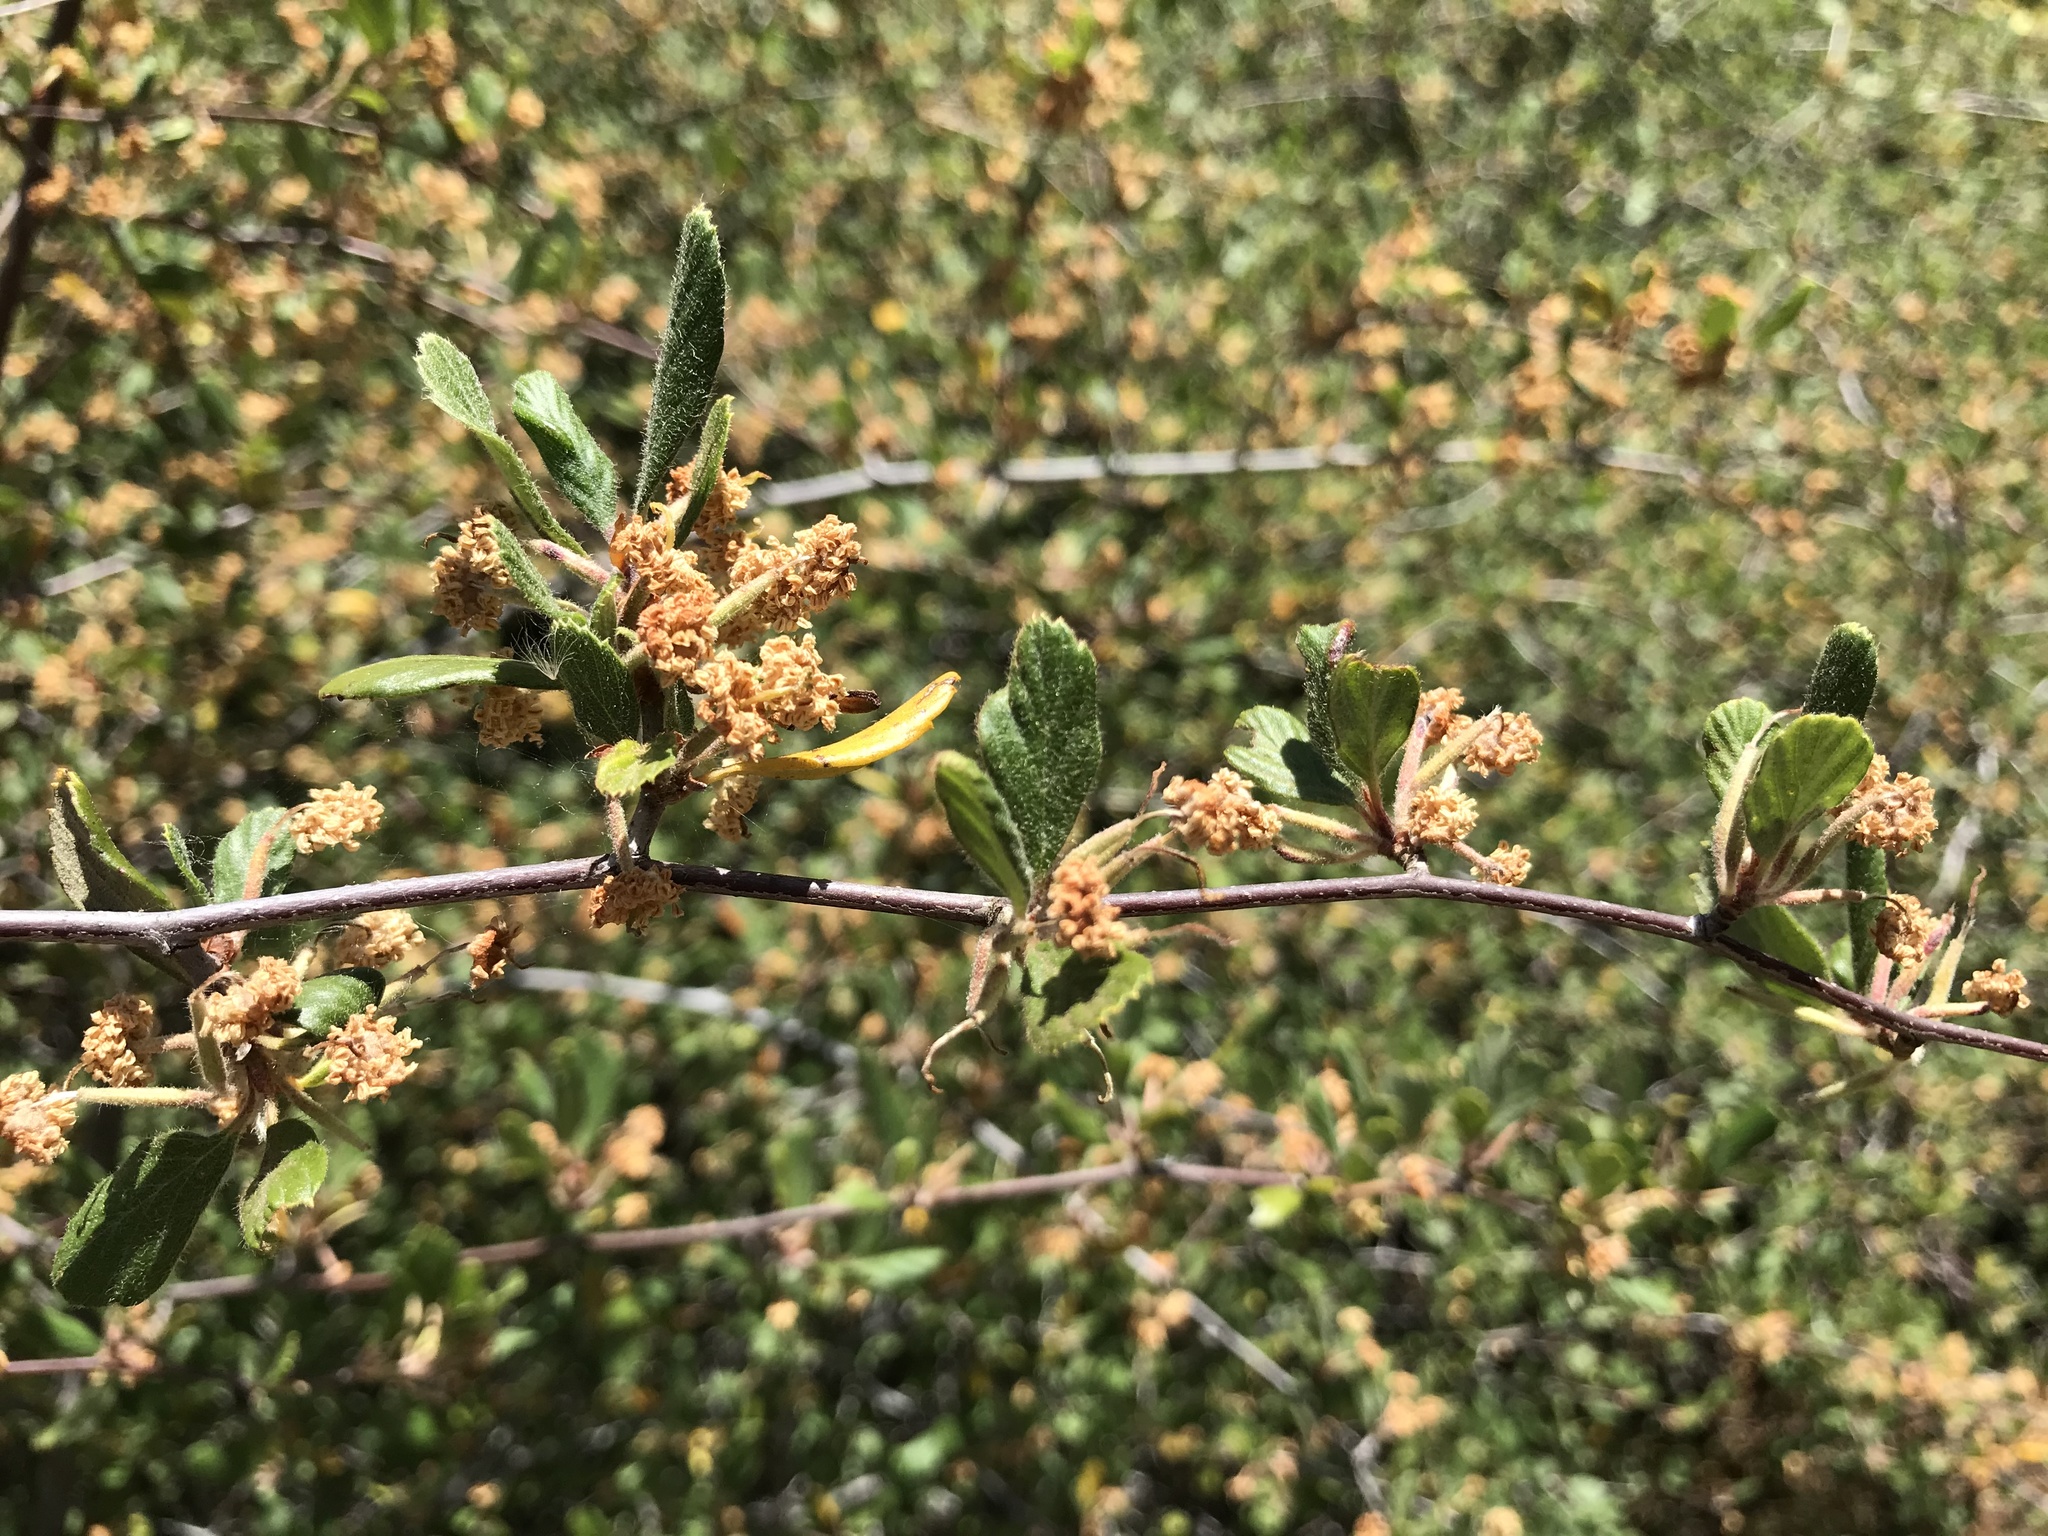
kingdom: Plantae
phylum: Tracheophyta
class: Magnoliopsida
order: Rosales
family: Rosaceae
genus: Cercocarpus
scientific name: Cercocarpus betuloides
